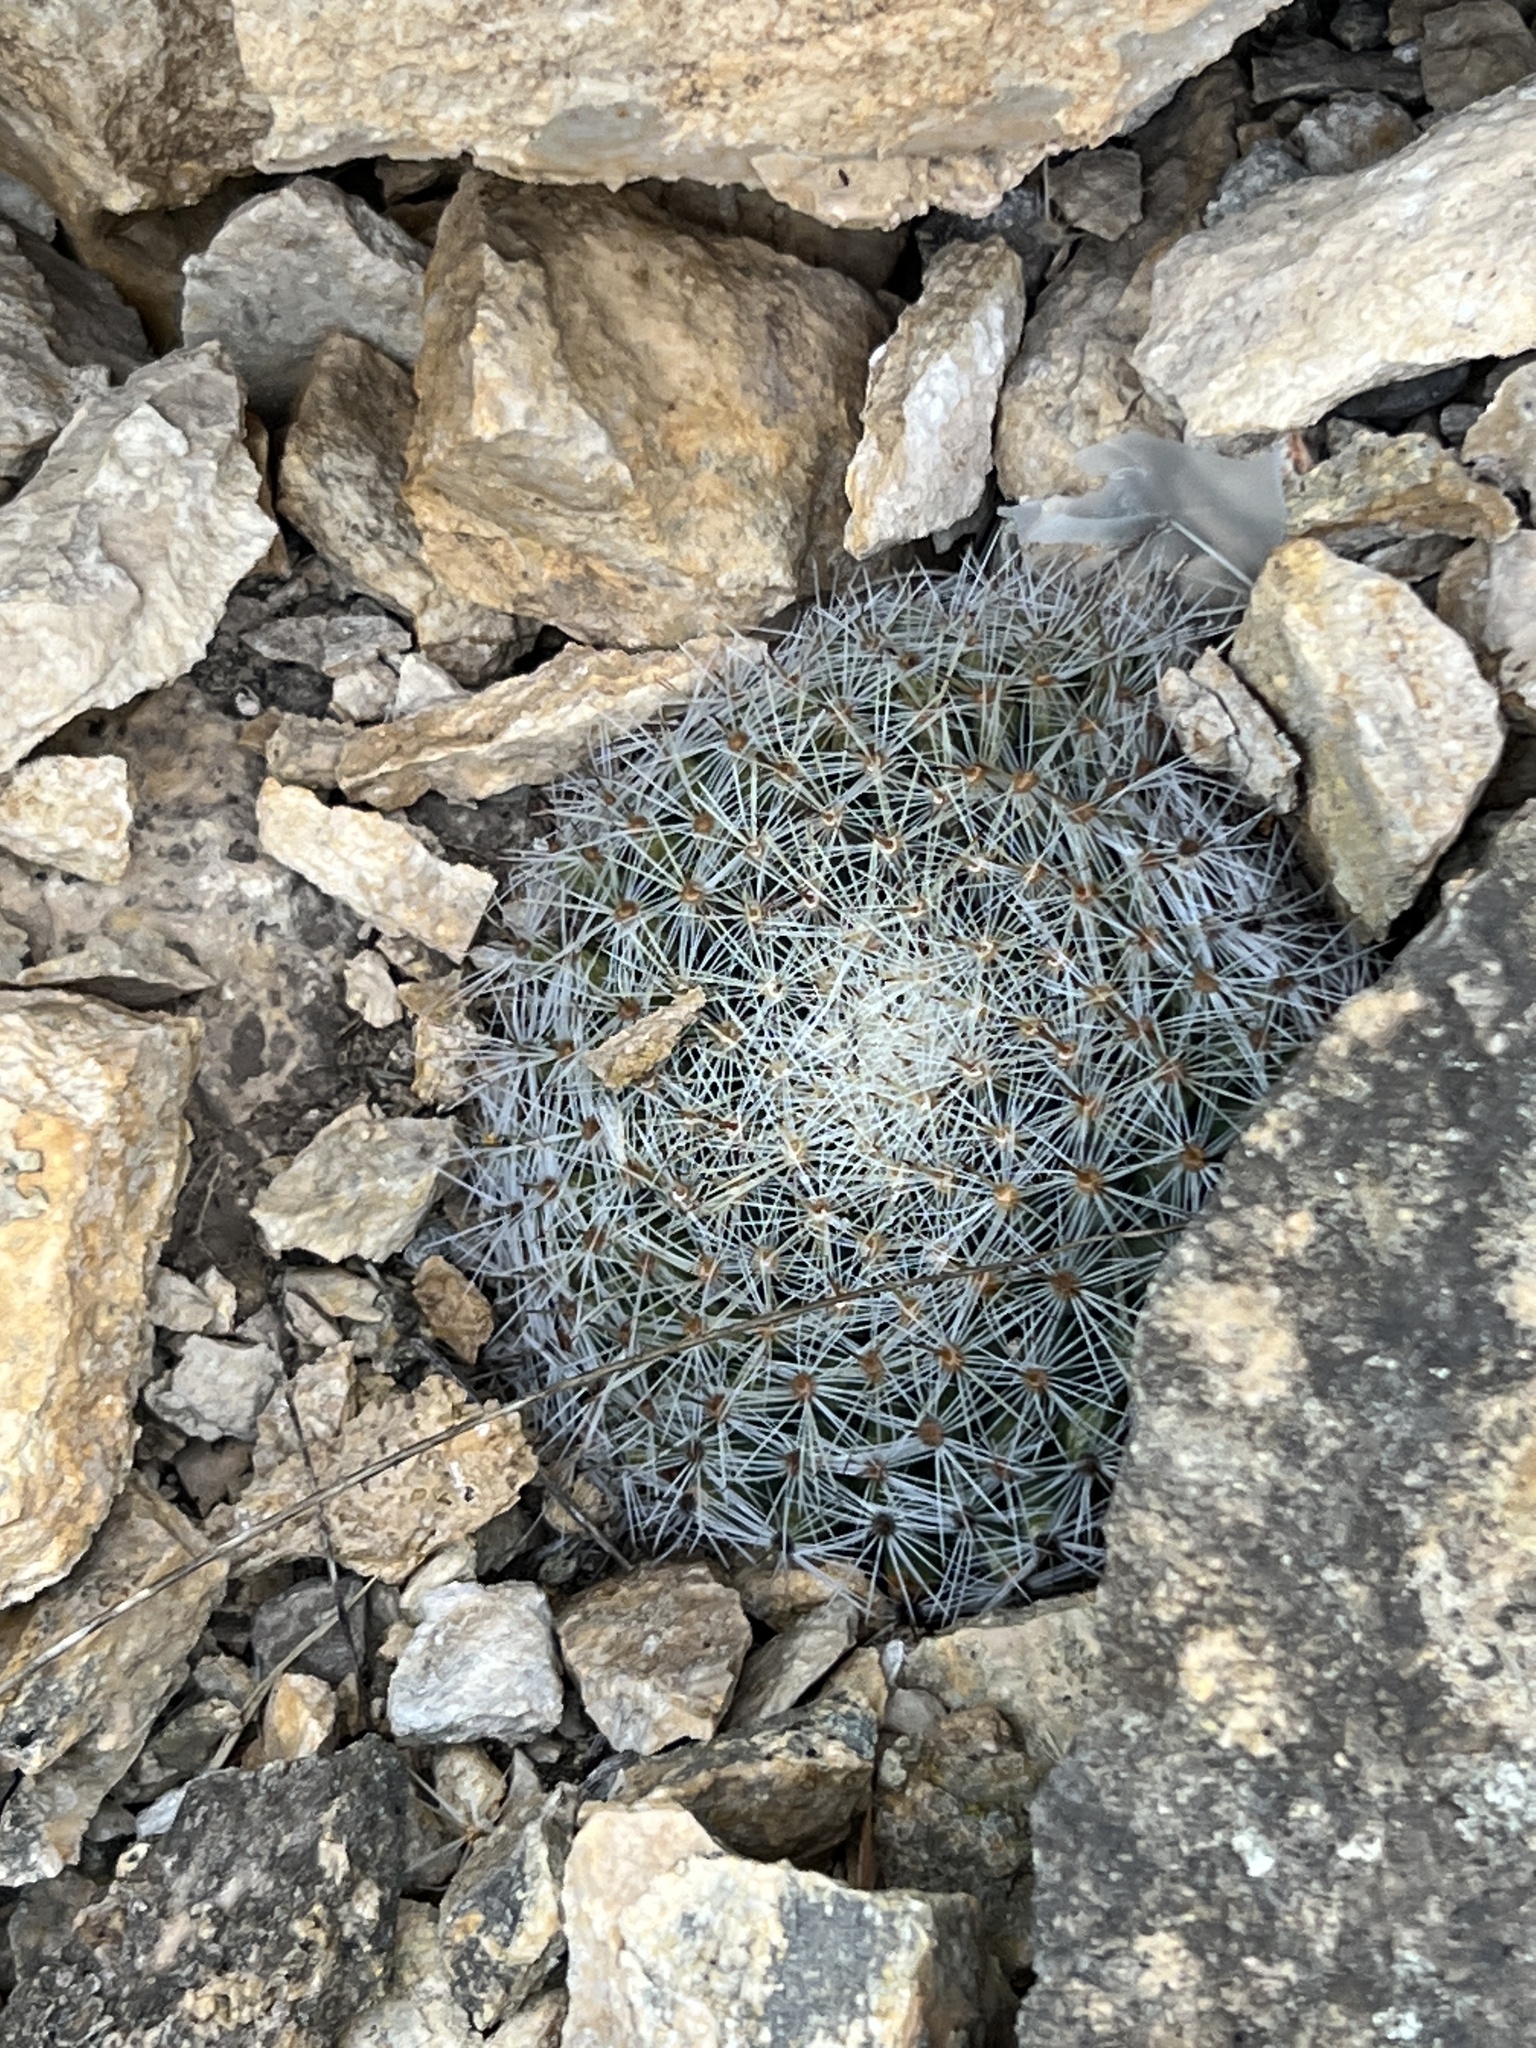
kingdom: Plantae
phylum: Tracheophyta
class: Magnoliopsida
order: Caryophyllales
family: Cactaceae
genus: Mammillaria
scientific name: Mammillaria heyderi
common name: Little nipple cactus
